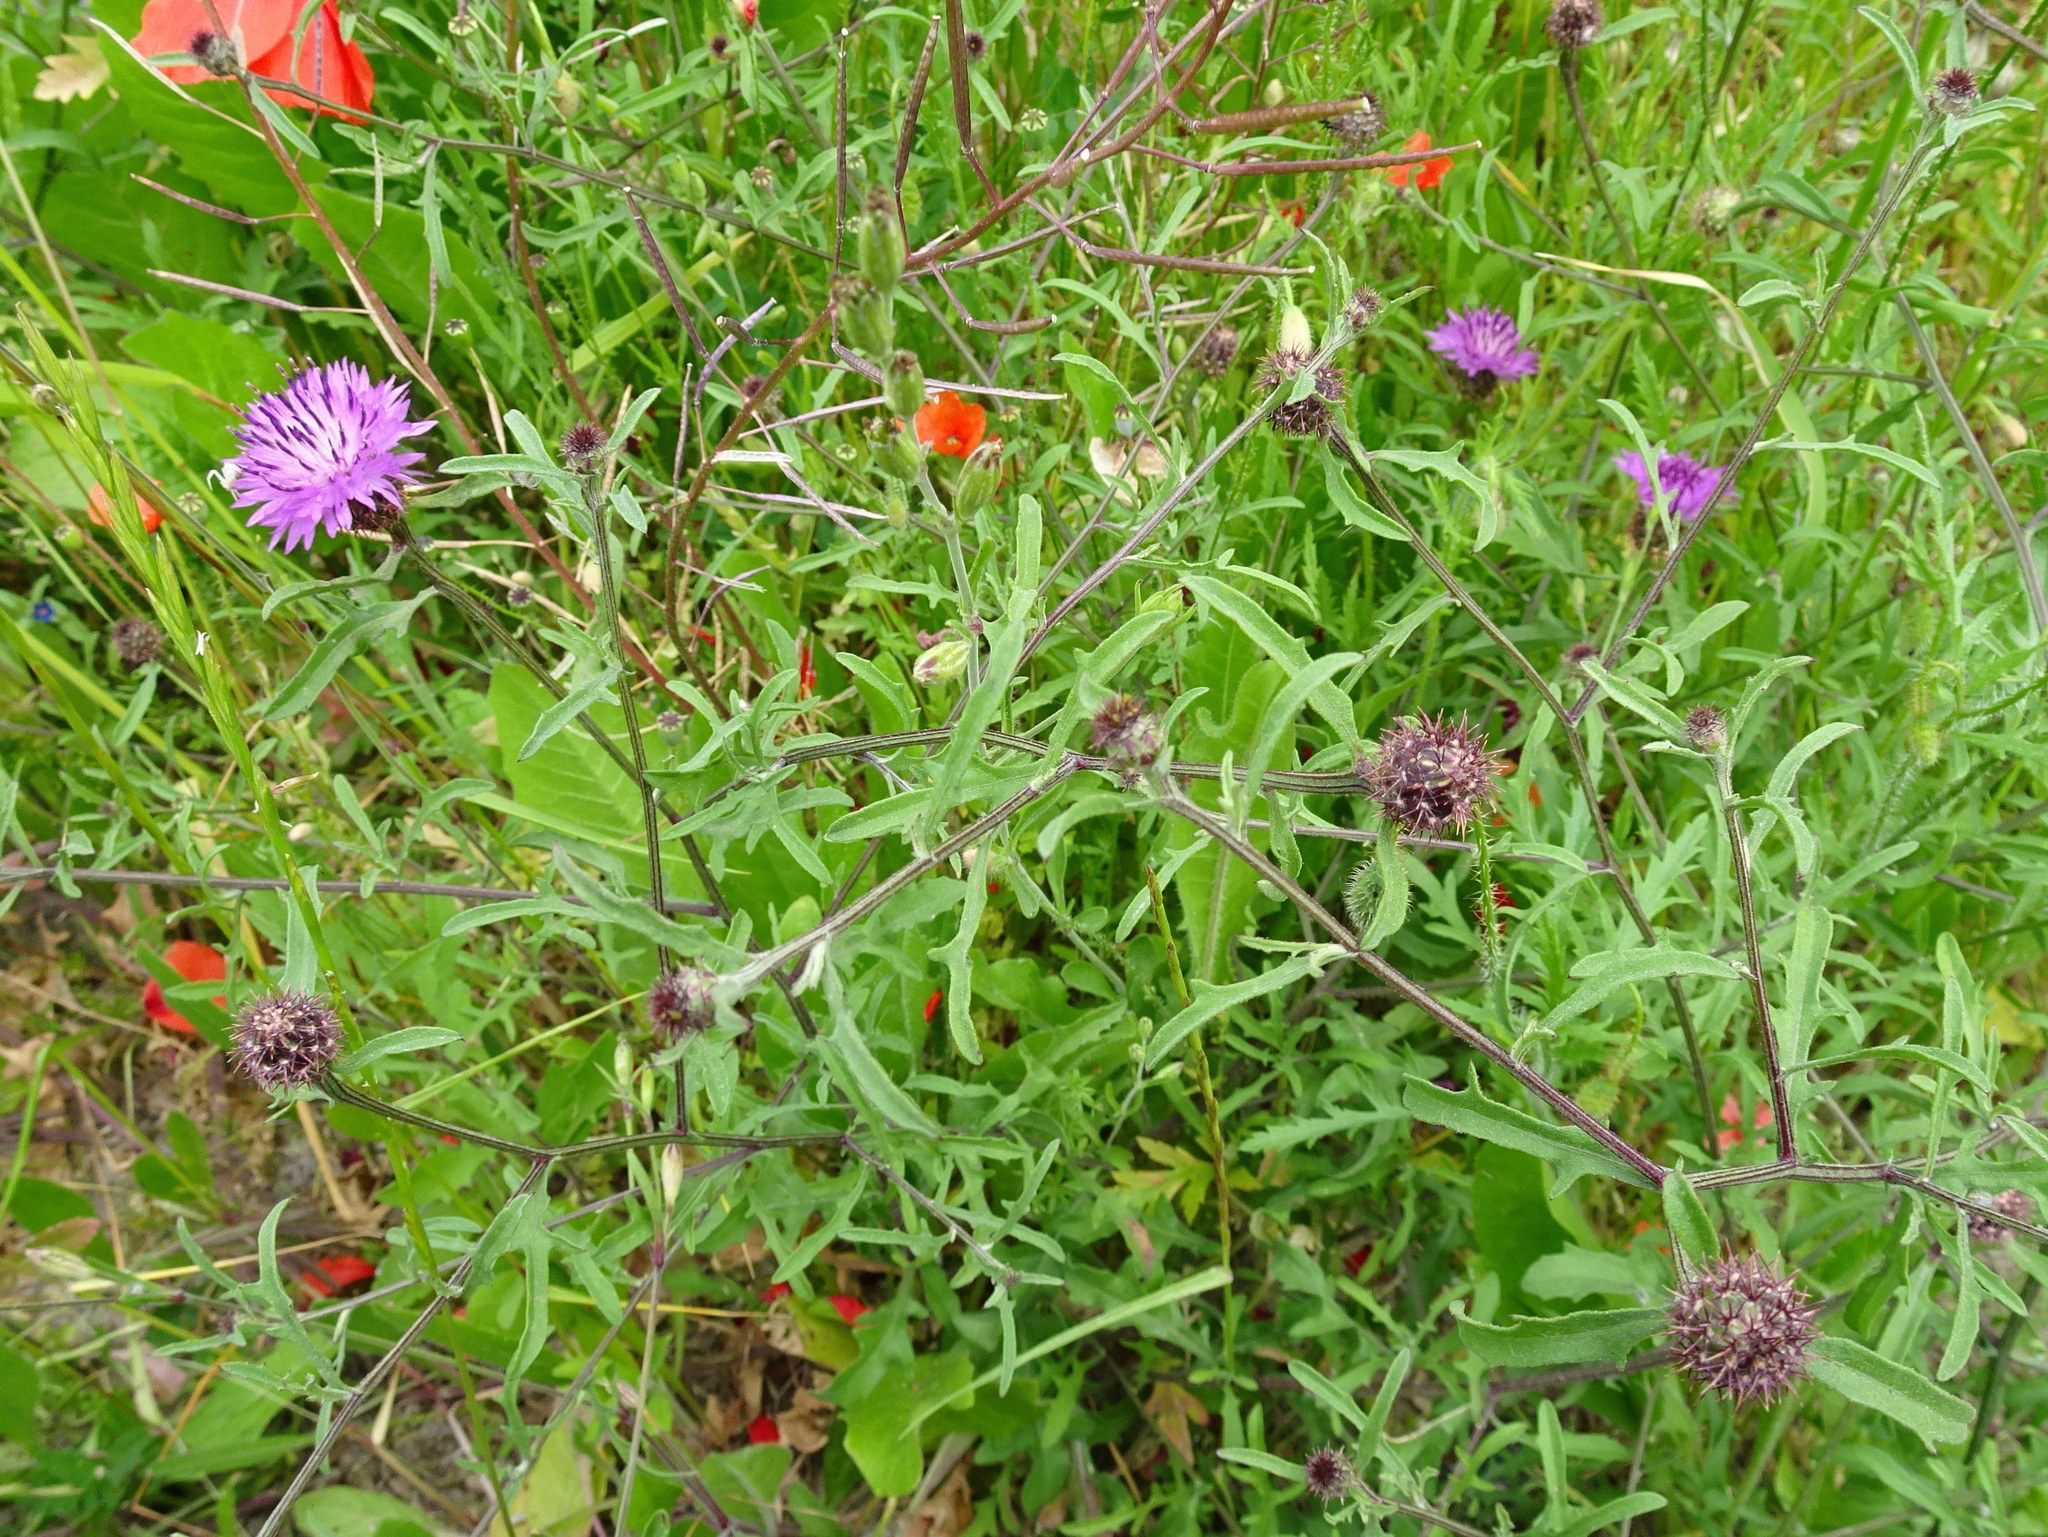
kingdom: Plantae
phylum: Tracheophyta
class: Magnoliopsida
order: Asterales
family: Asteraceae
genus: Centaurea
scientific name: Centaurea aspera
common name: Rough star-thistle
